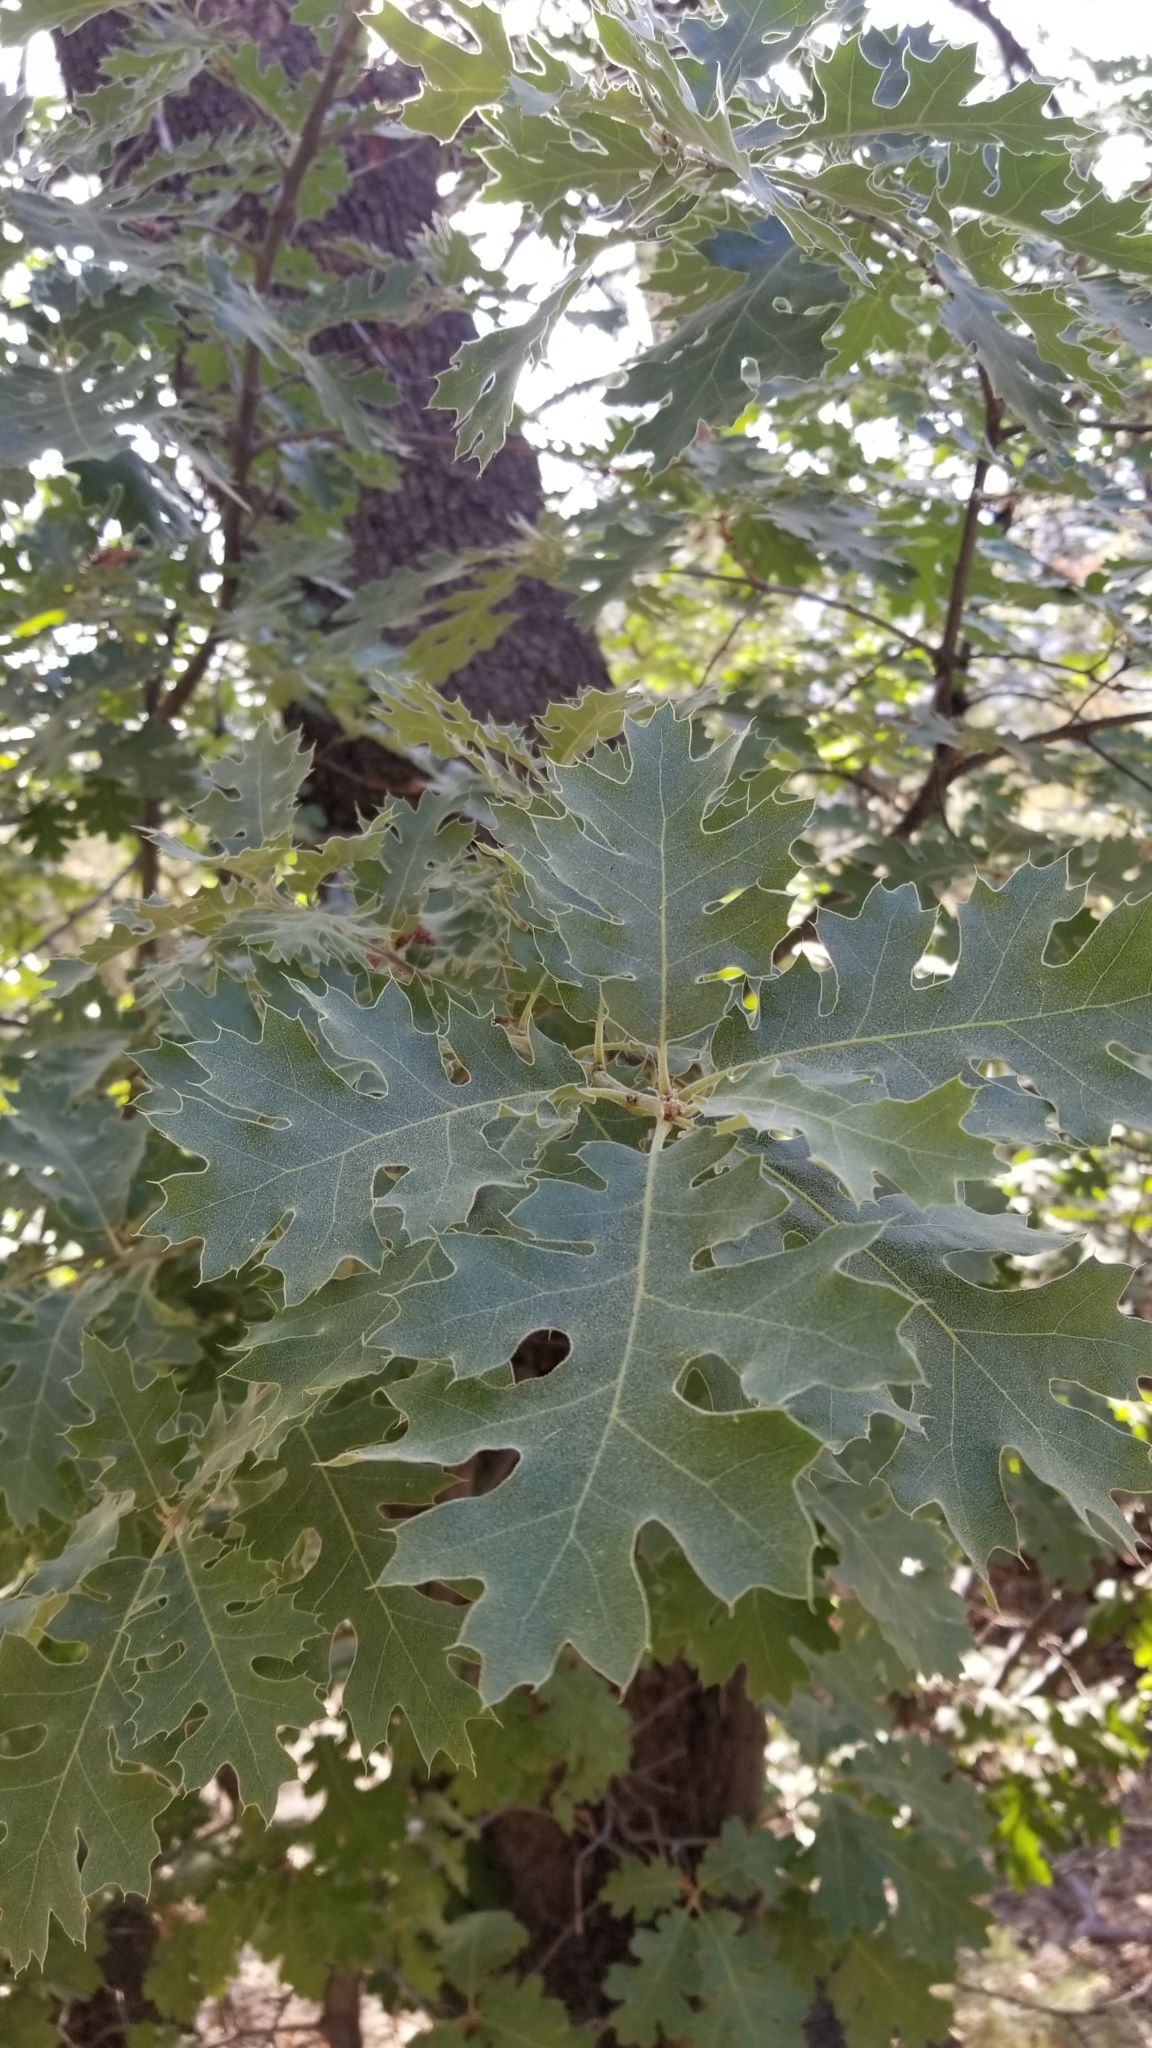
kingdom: Plantae
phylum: Tracheophyta
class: Magnoliopsida
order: Fagales
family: Fagaceae
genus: Quercus
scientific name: Quercus kelloggii
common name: California black oak
